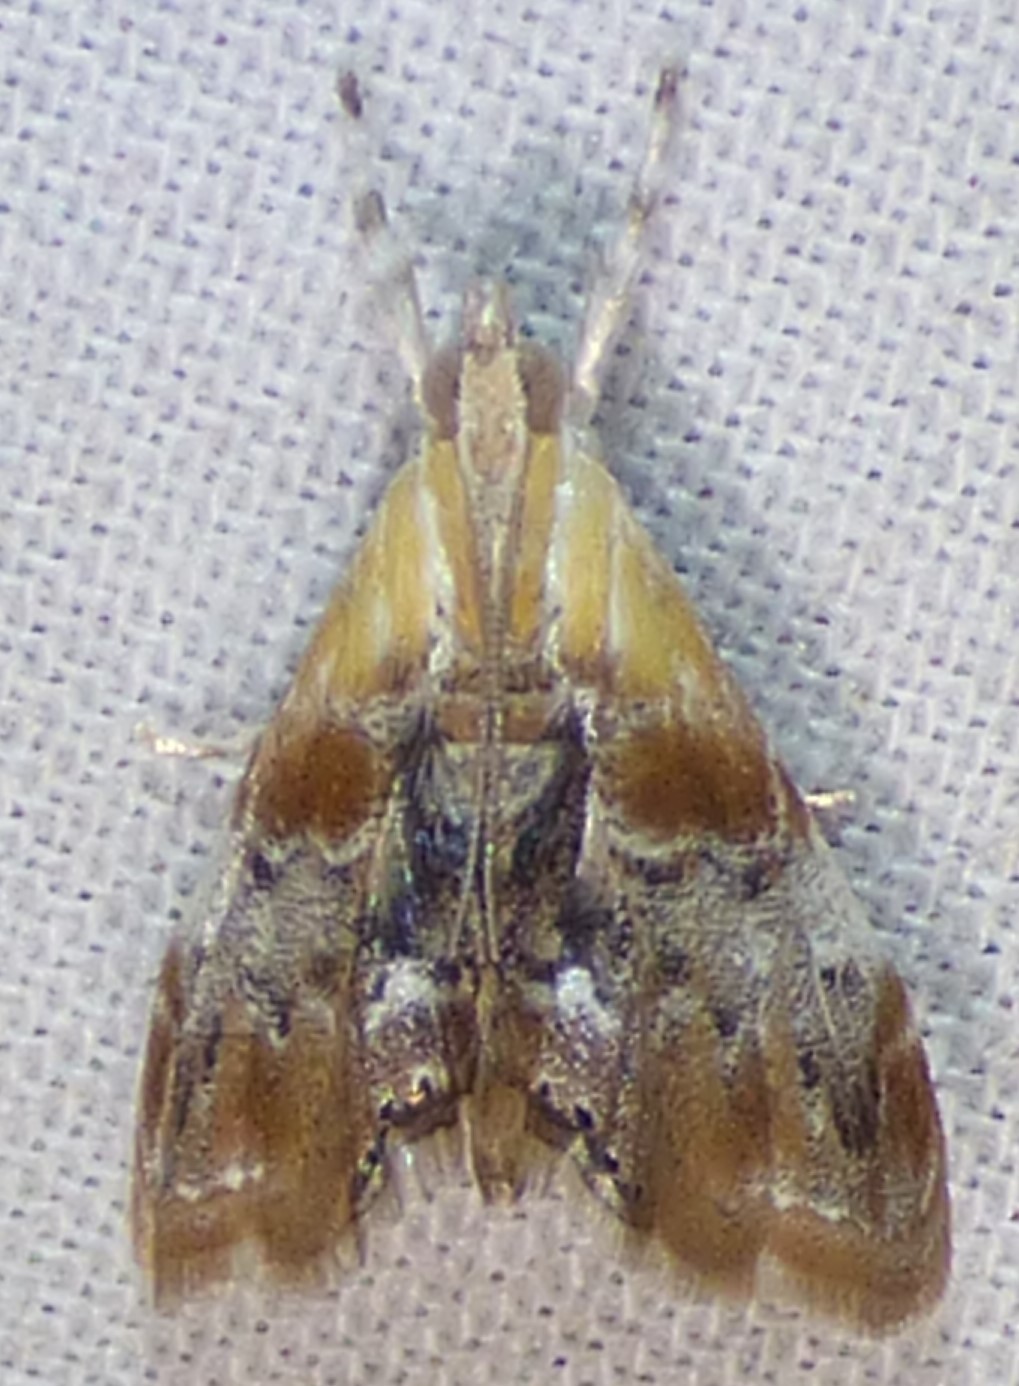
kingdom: Animalia
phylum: Arthropoda
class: Insecta
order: Lepidoptera
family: Crambidae
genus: Dicymolomia
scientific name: Dicymolomia julianalis
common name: Julia's dicymolomia moth
